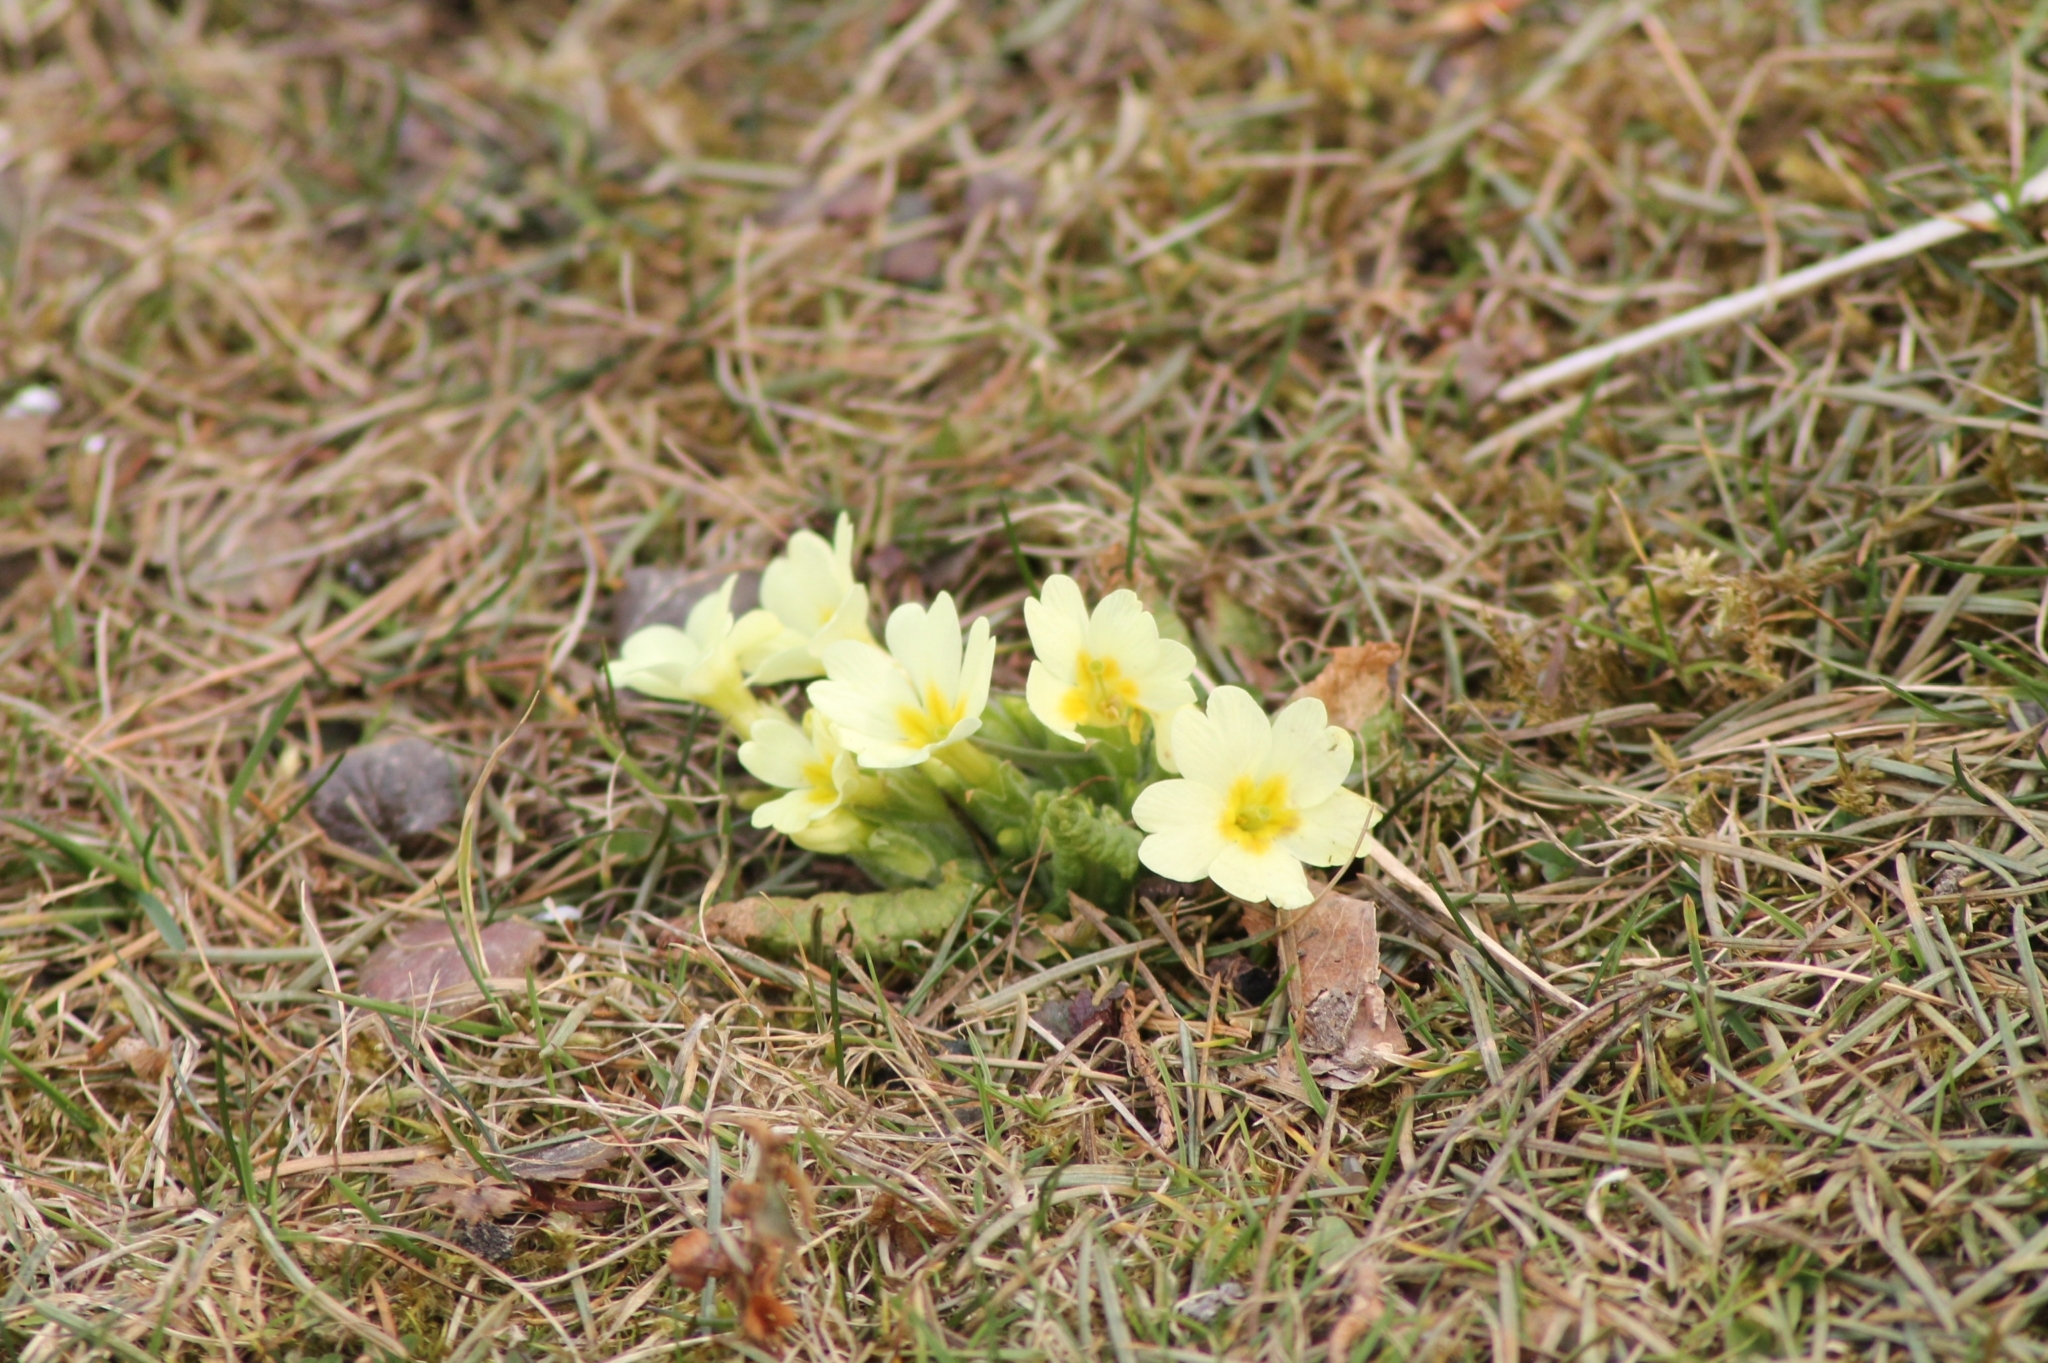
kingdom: Plantae
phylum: Tracheophyta
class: Magnoliopsida
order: Ericales
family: Primulaceae
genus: Primula
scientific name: Primula vulgaris
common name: Primrose
